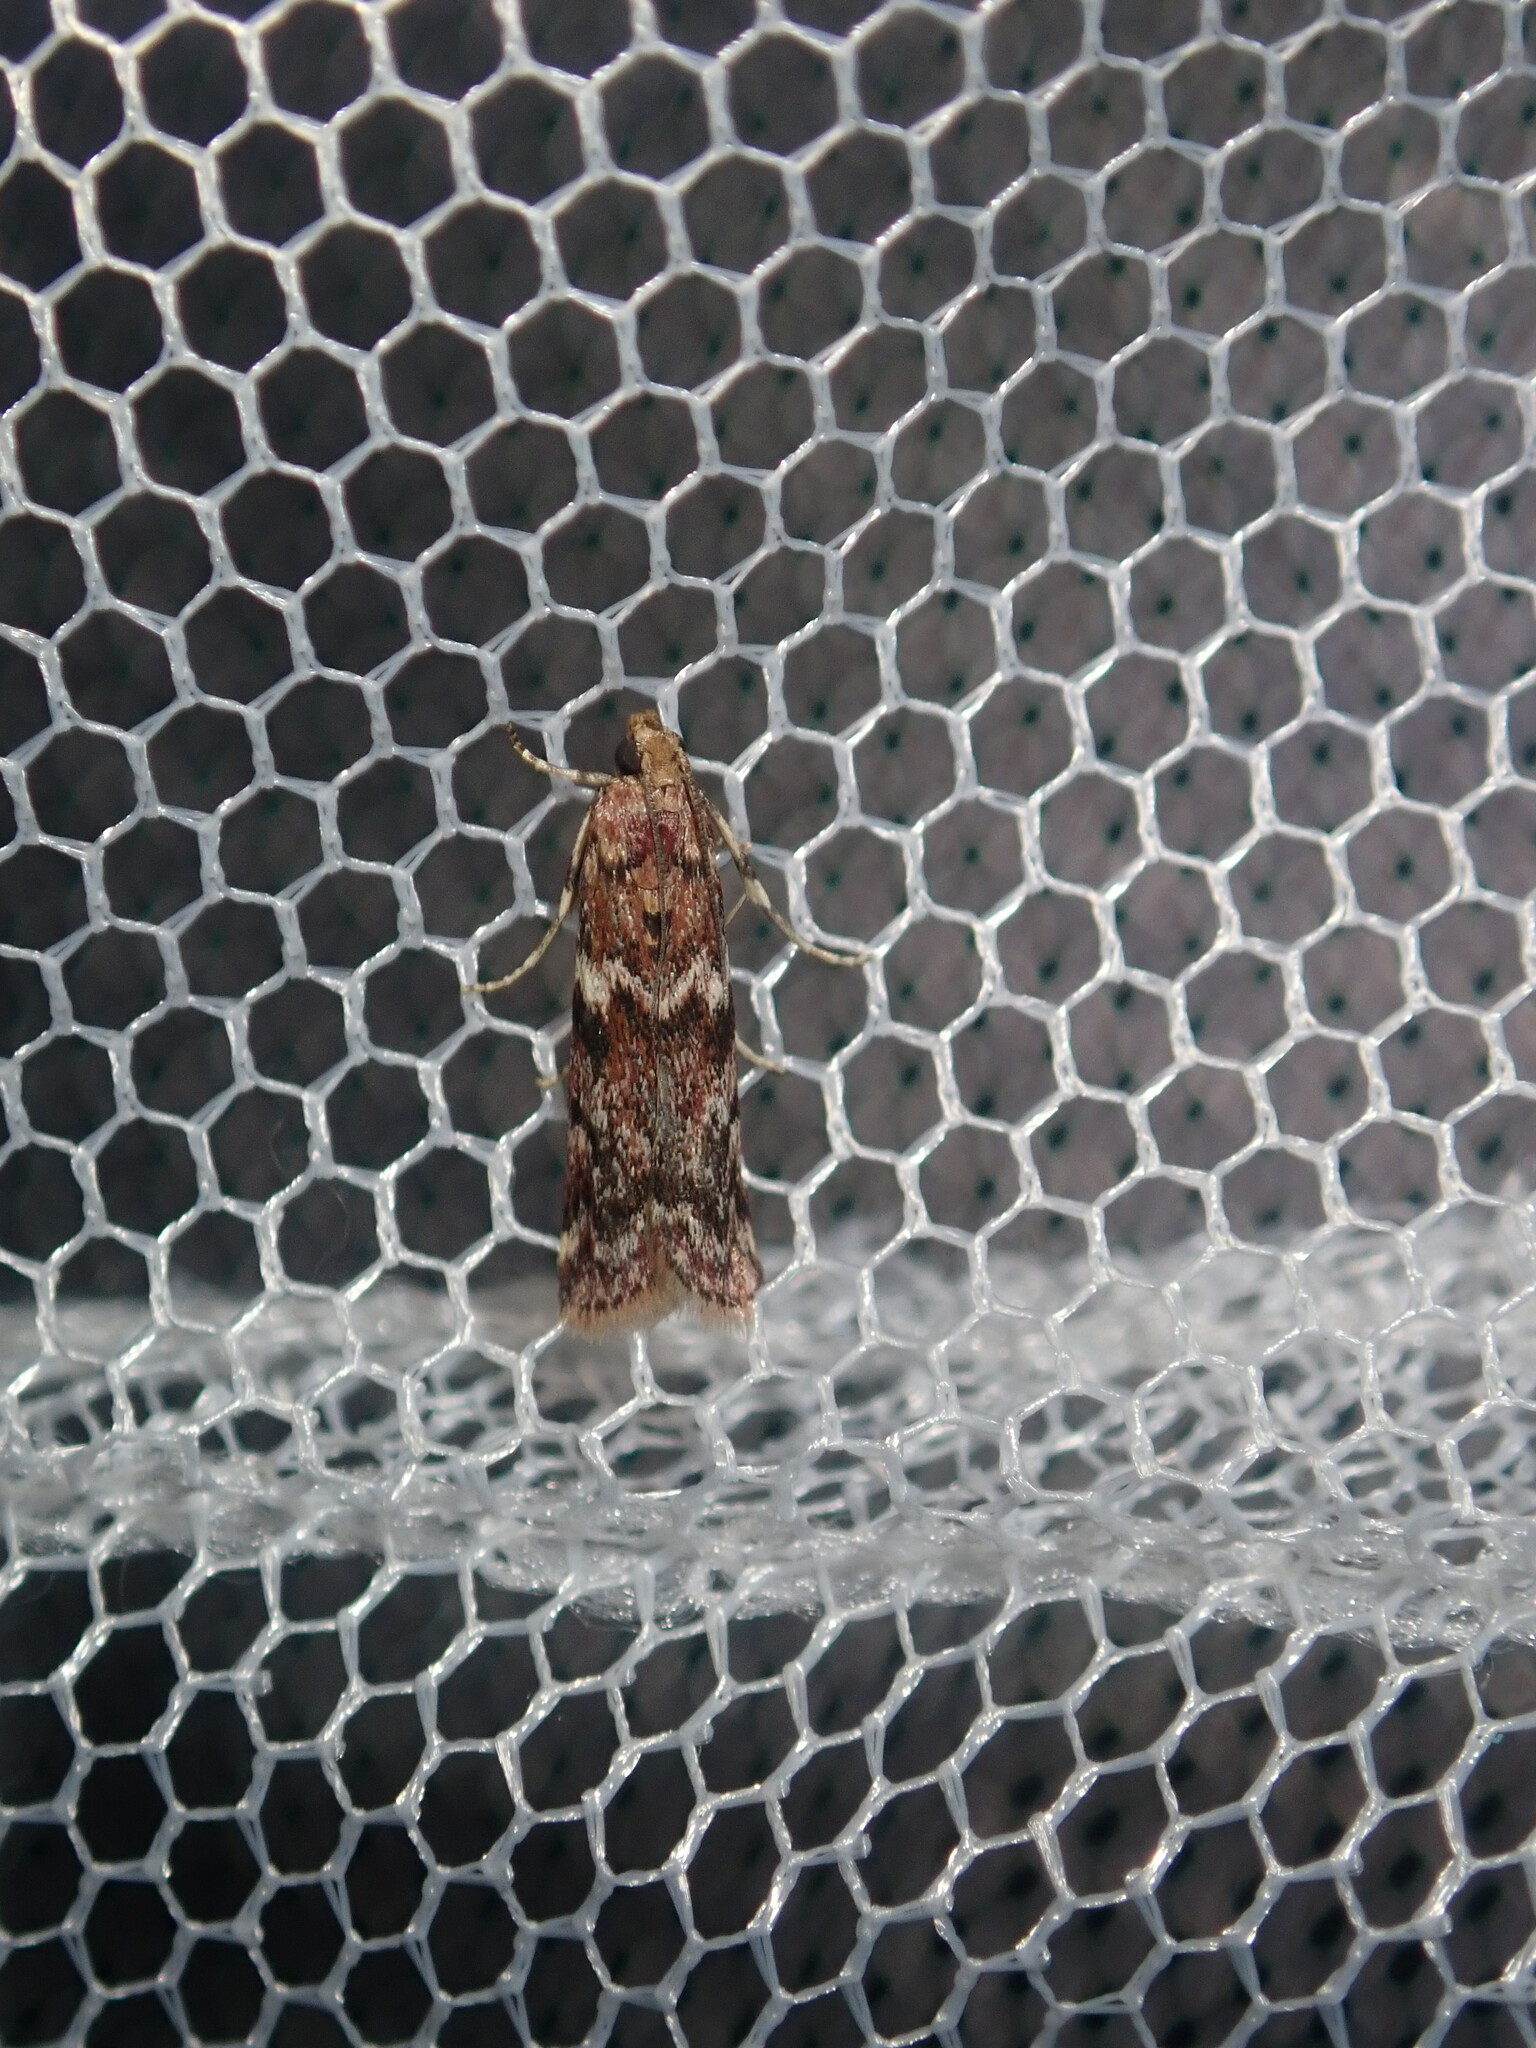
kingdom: Animalia
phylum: Arthropoda
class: Insecta
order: Lepidoptera
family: Pyralidae
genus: Ephestiopsis
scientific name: Ephestiopsis oenobarella
